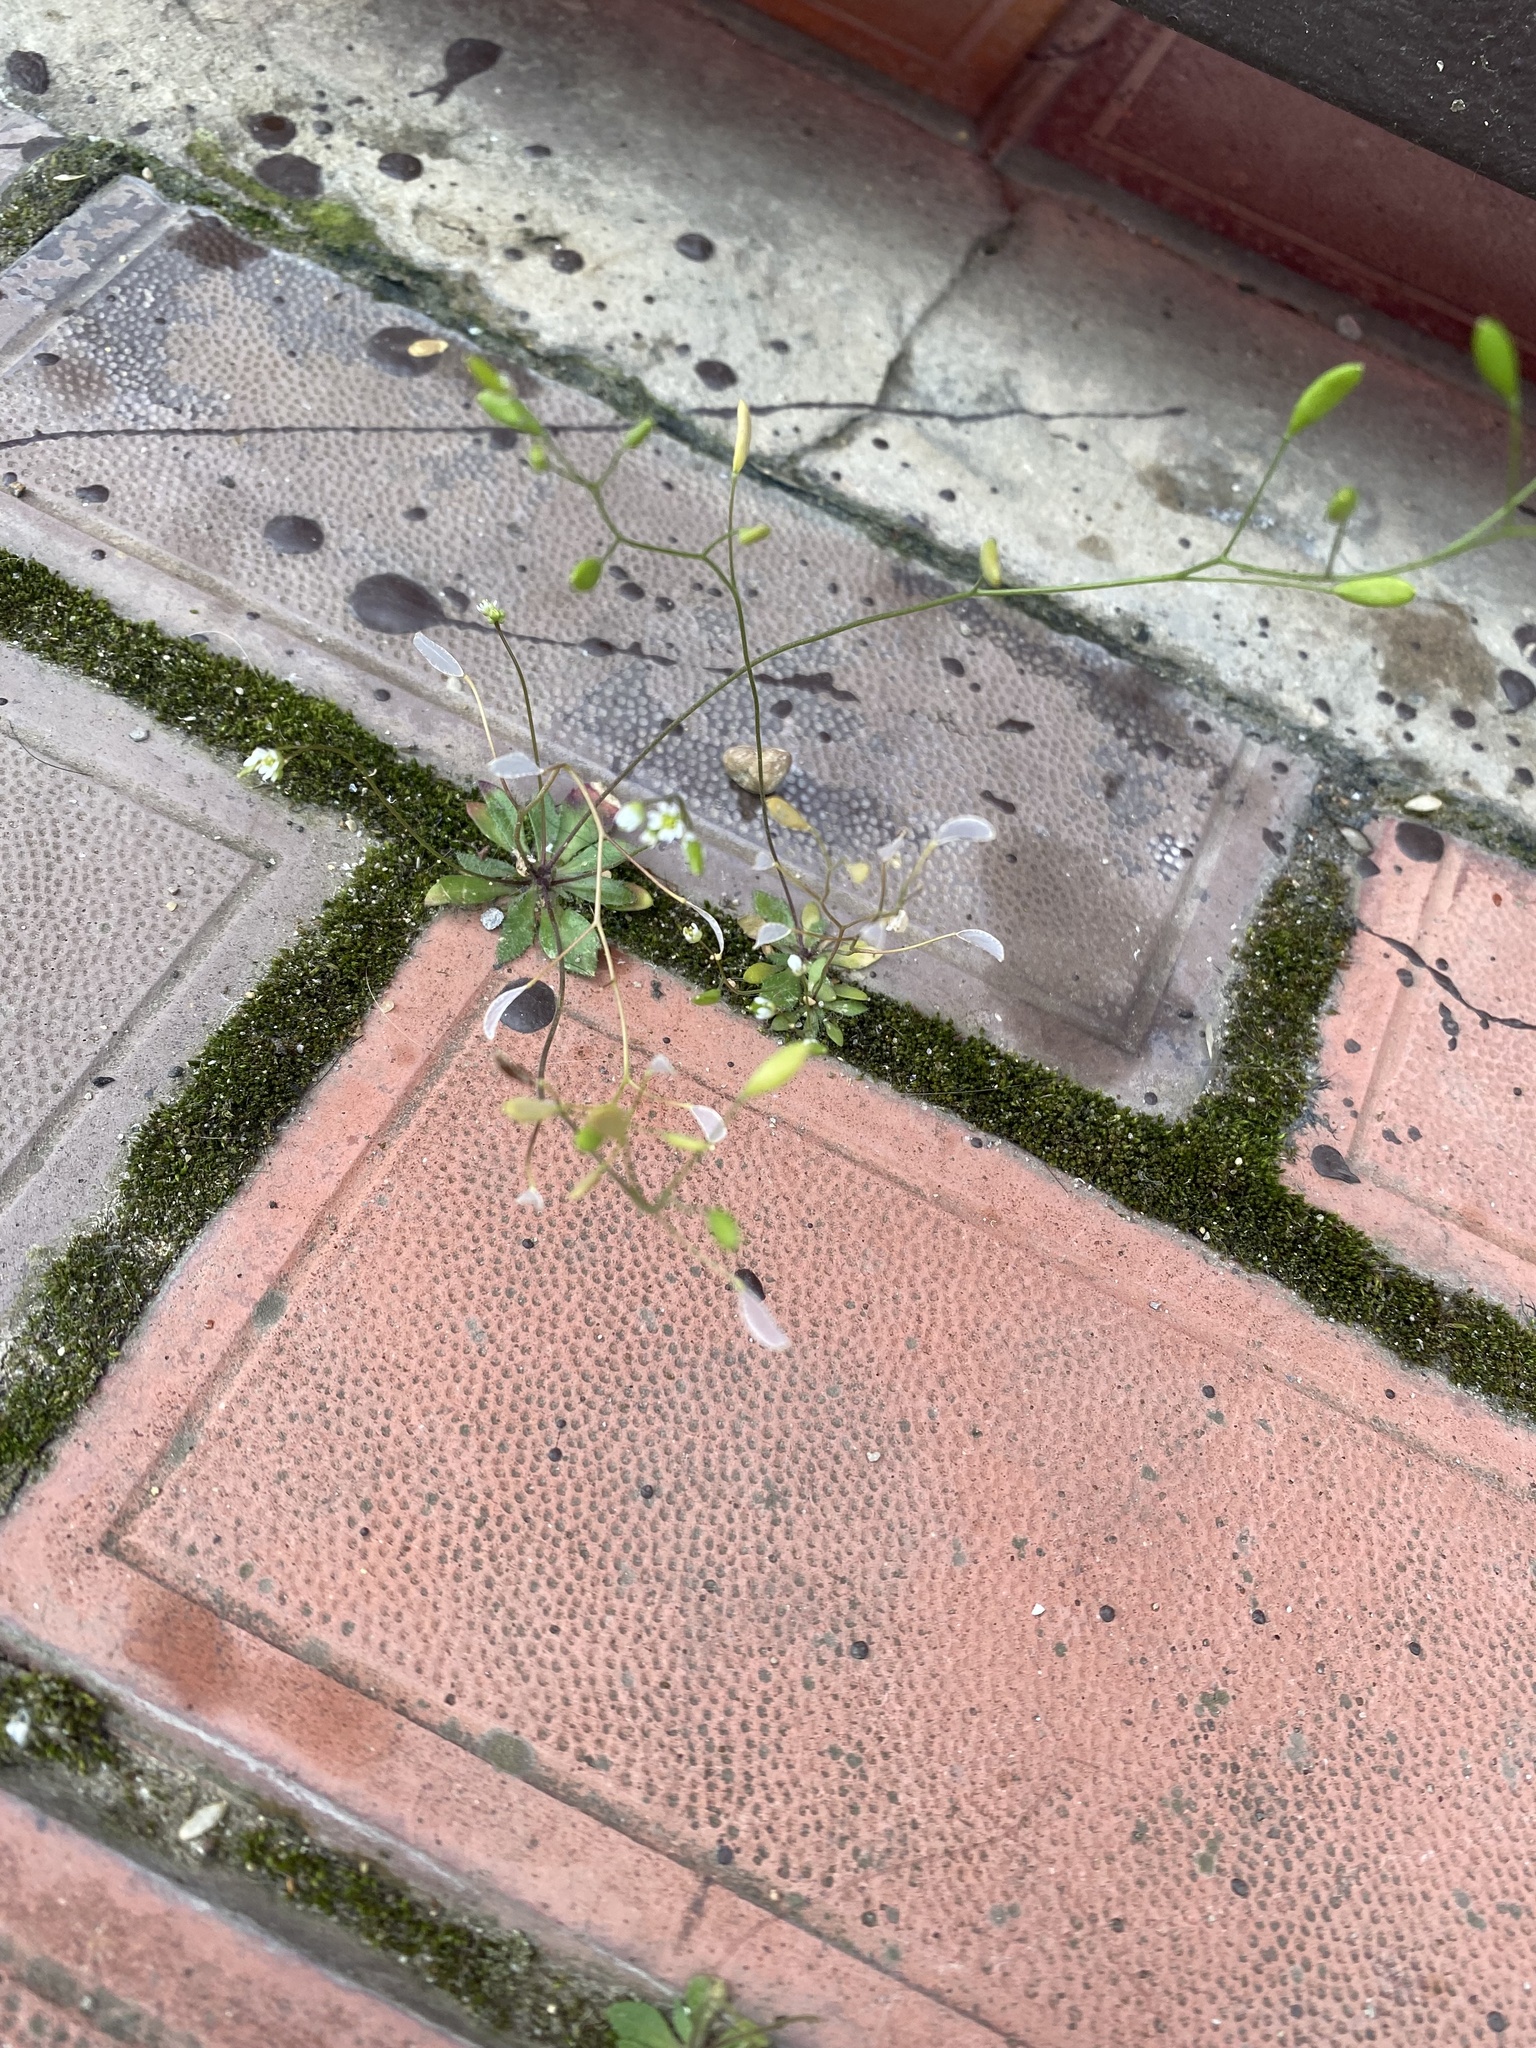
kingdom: Plantae
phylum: Tracheophyta
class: Magnoliopsida
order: Brassicales
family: Brassicaceae
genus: Draba
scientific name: Draba verna
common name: Spring draba
